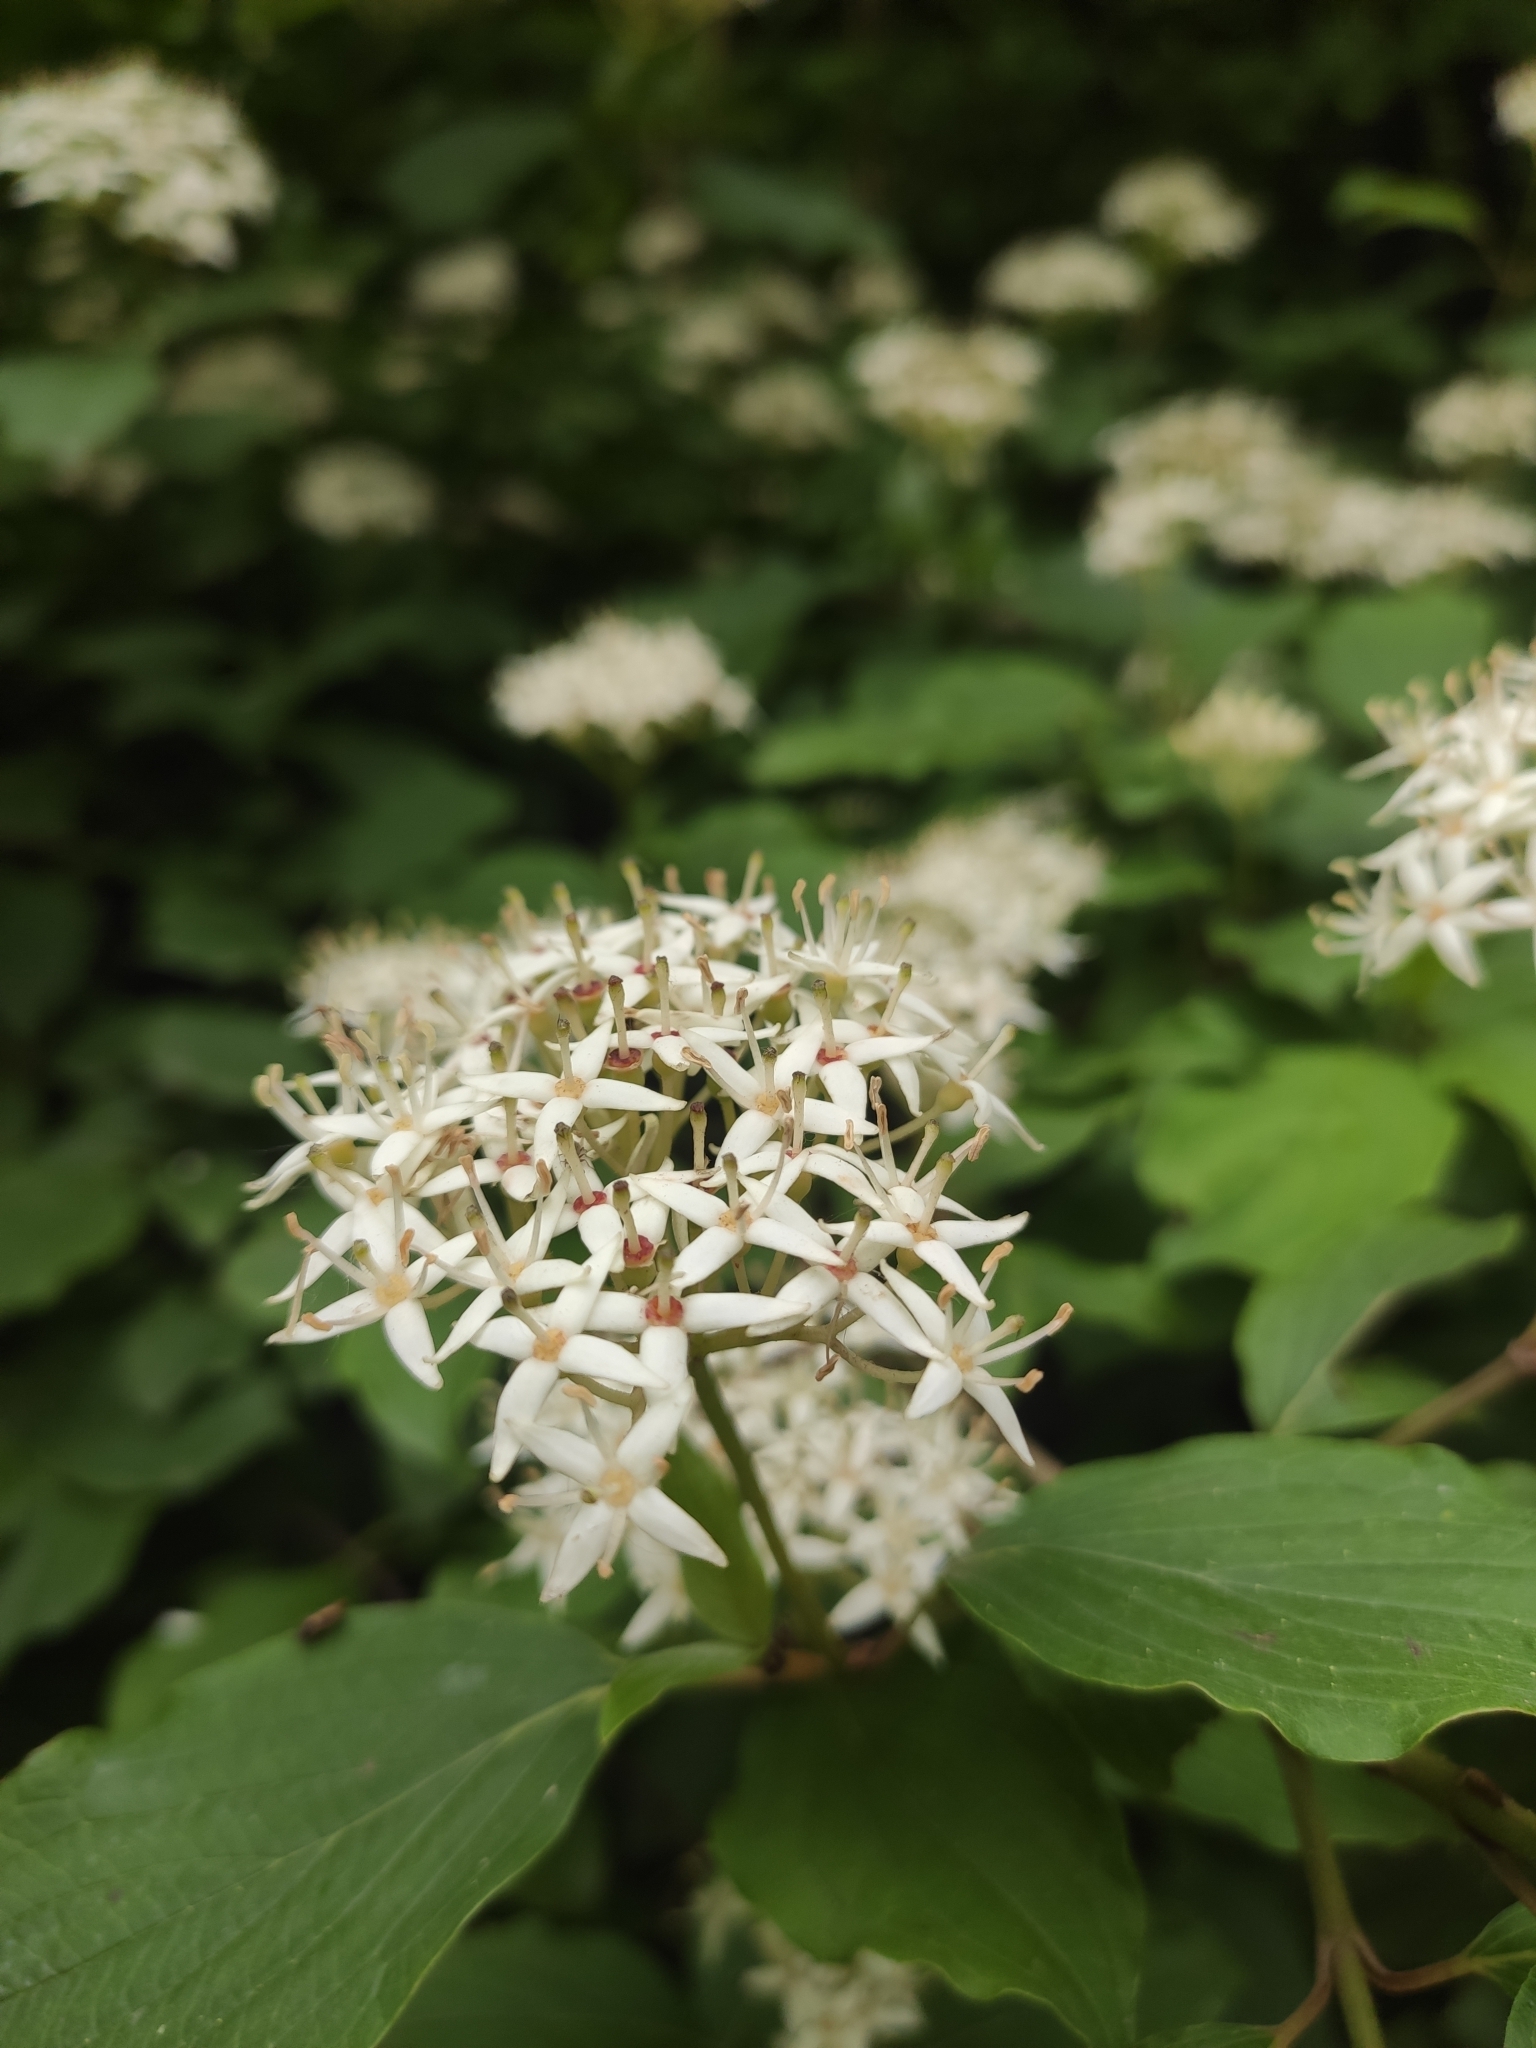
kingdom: Plantae
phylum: Tracheophyta
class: Magnoliopsida
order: Cornales
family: Cornaceae
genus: Cornus
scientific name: Cornus sanguinea
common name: Dogwood
